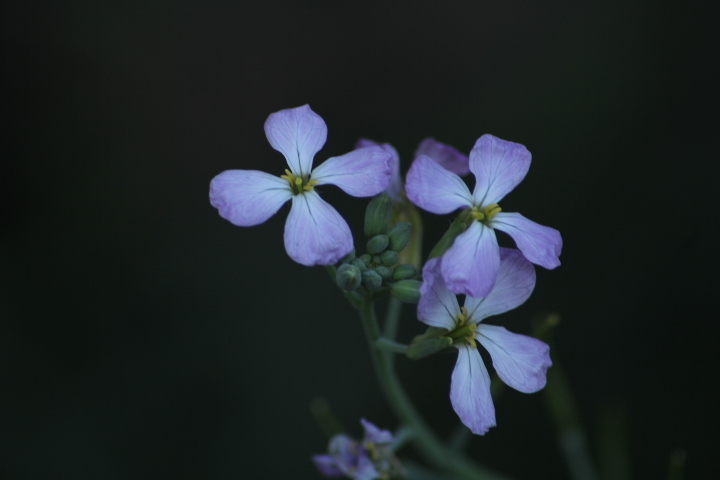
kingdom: Plantae
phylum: Tracheophyta
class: Magnoliopsida
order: Brassicales
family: Brassicaceae
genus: Raphanus
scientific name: Raphanus sativus
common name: Cultivated radish
